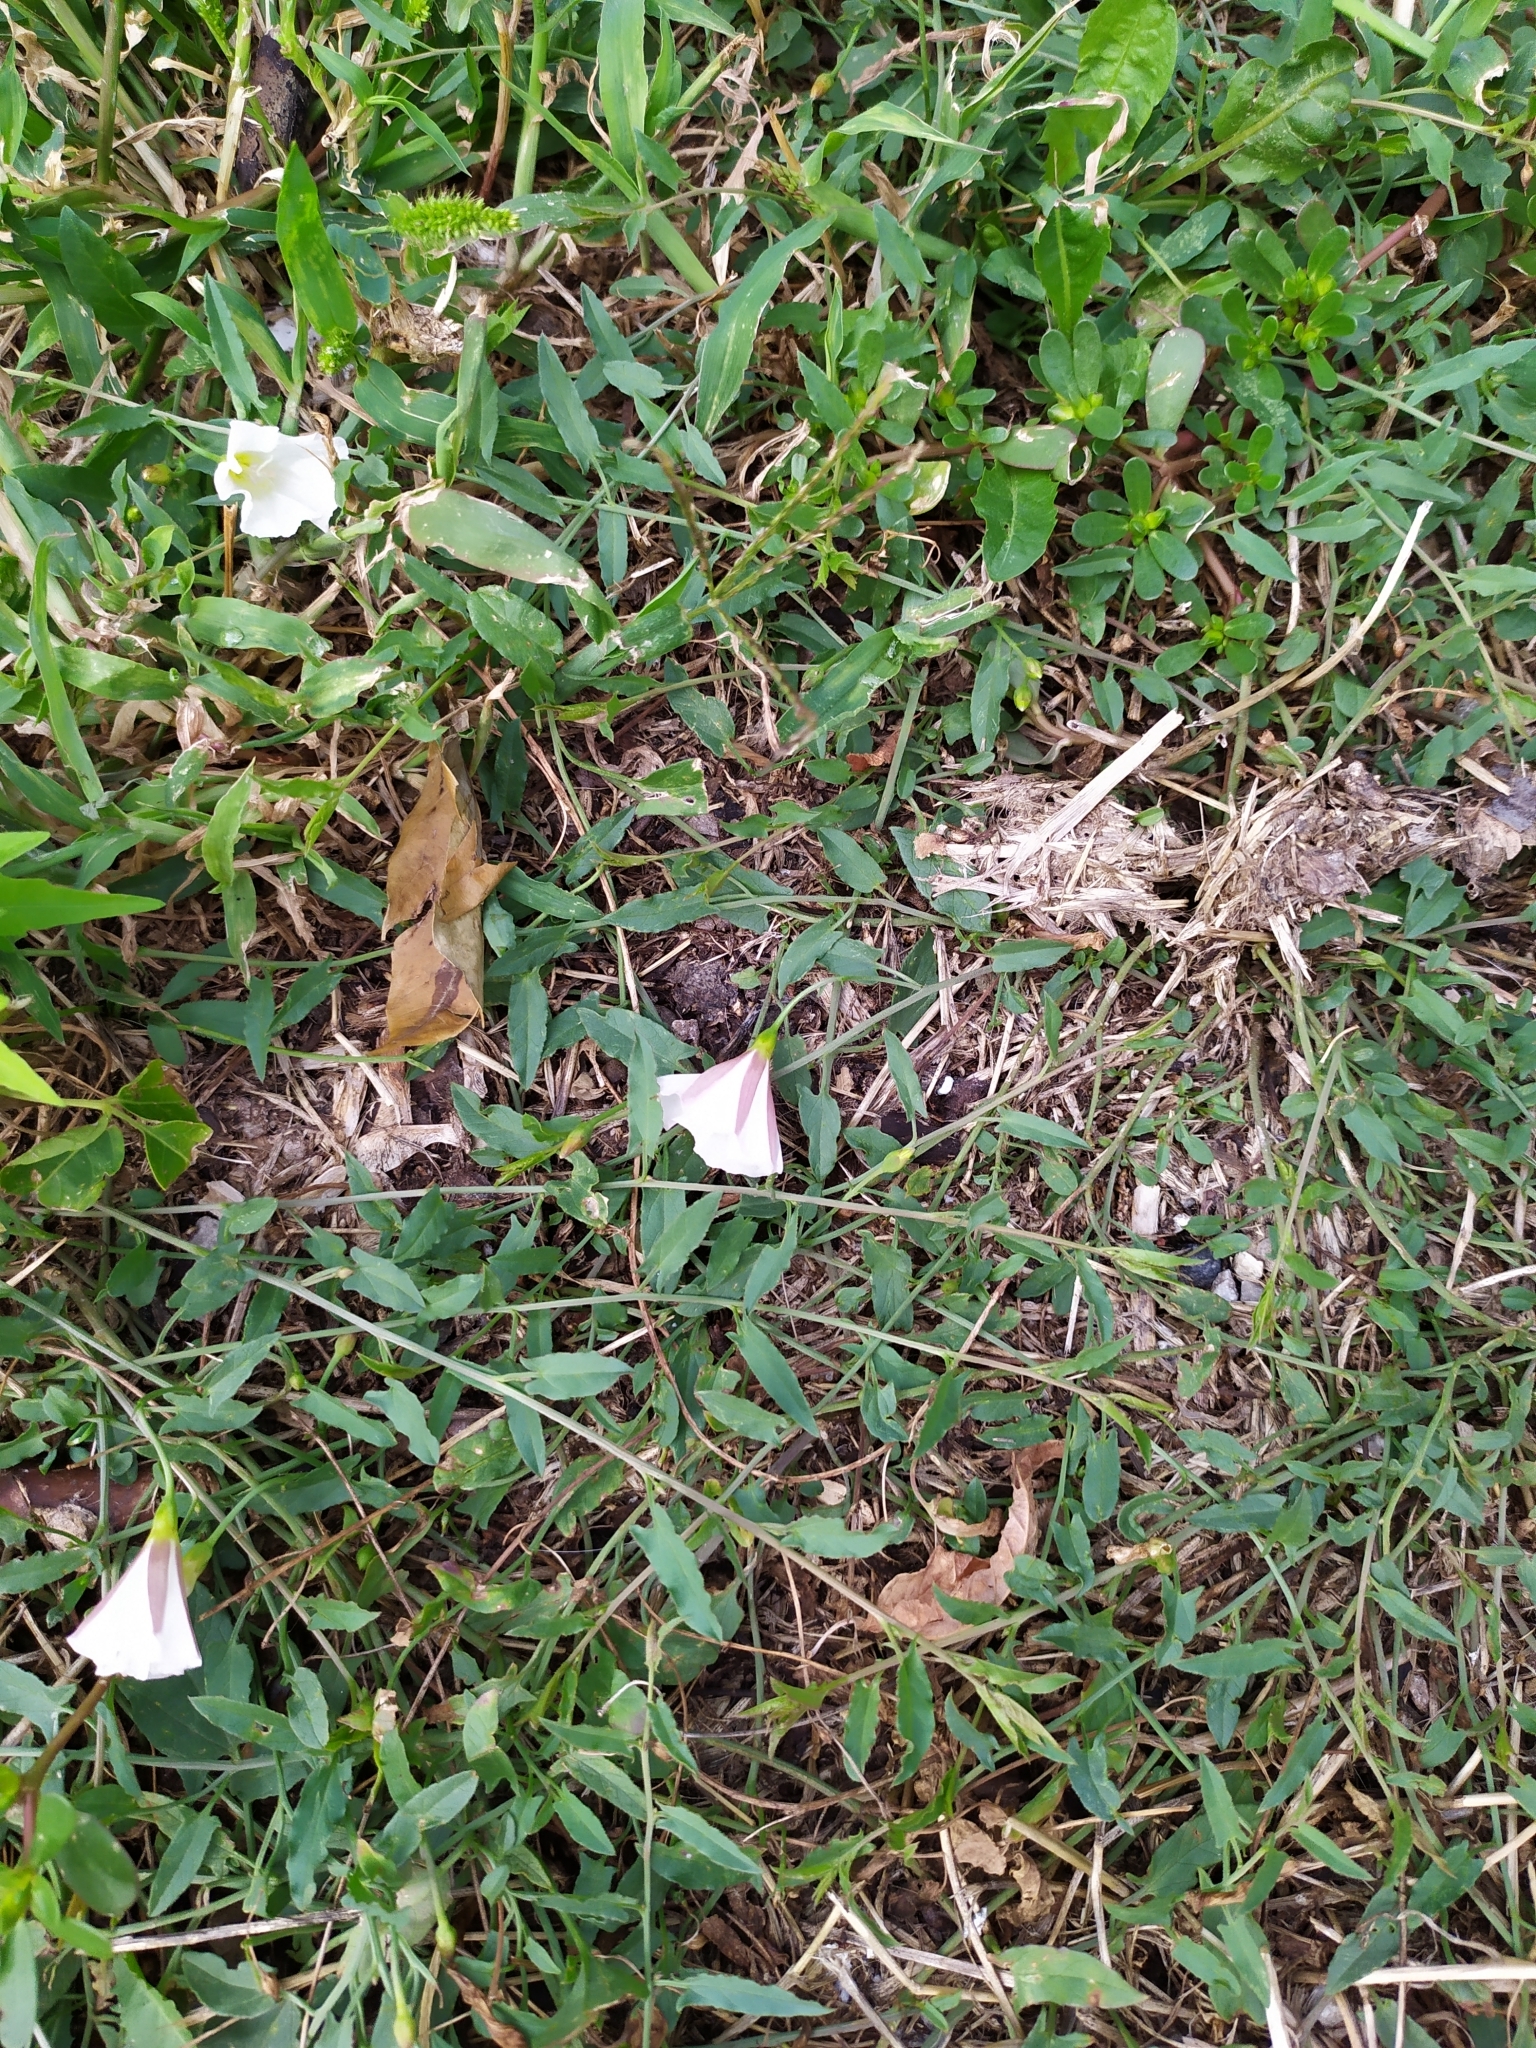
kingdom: Plantae
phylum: Tracheophyta
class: Magnoliopsida
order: Solanales
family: Convolvulaceae
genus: Convolvulus
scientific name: Convolvulus arvensis
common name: Field bindweed
